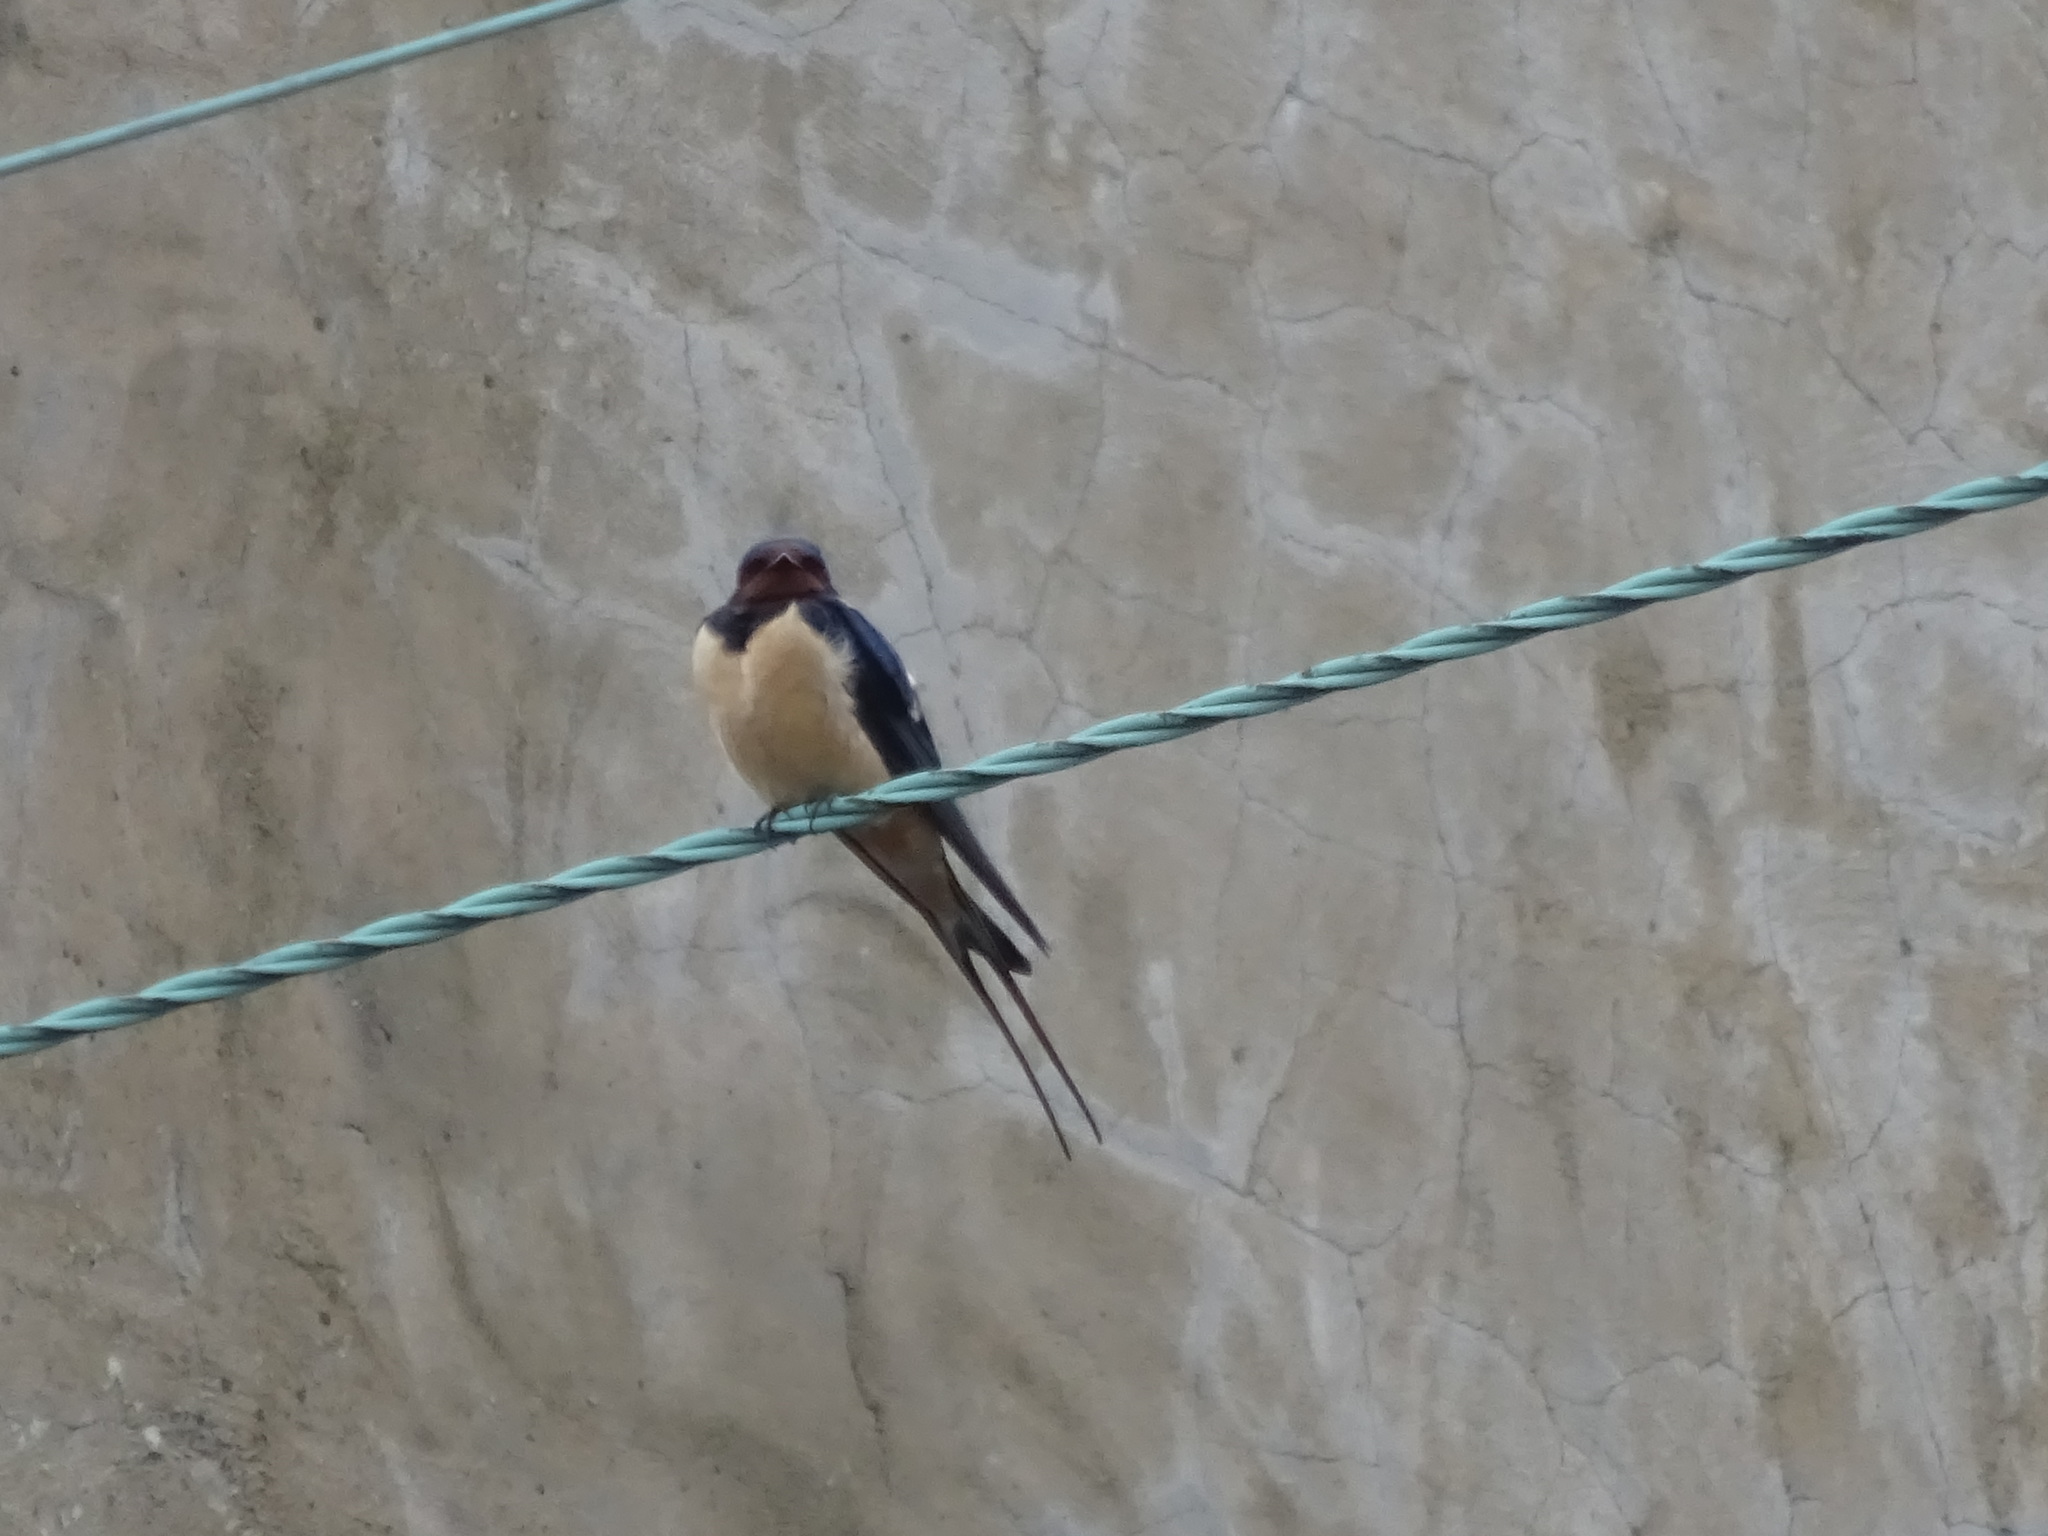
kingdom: Animalia
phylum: Chordata
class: Aves
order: Passeriformes
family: Hirundinidae
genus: Hirundo
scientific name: Hirundo rustica
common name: Barn swallow
